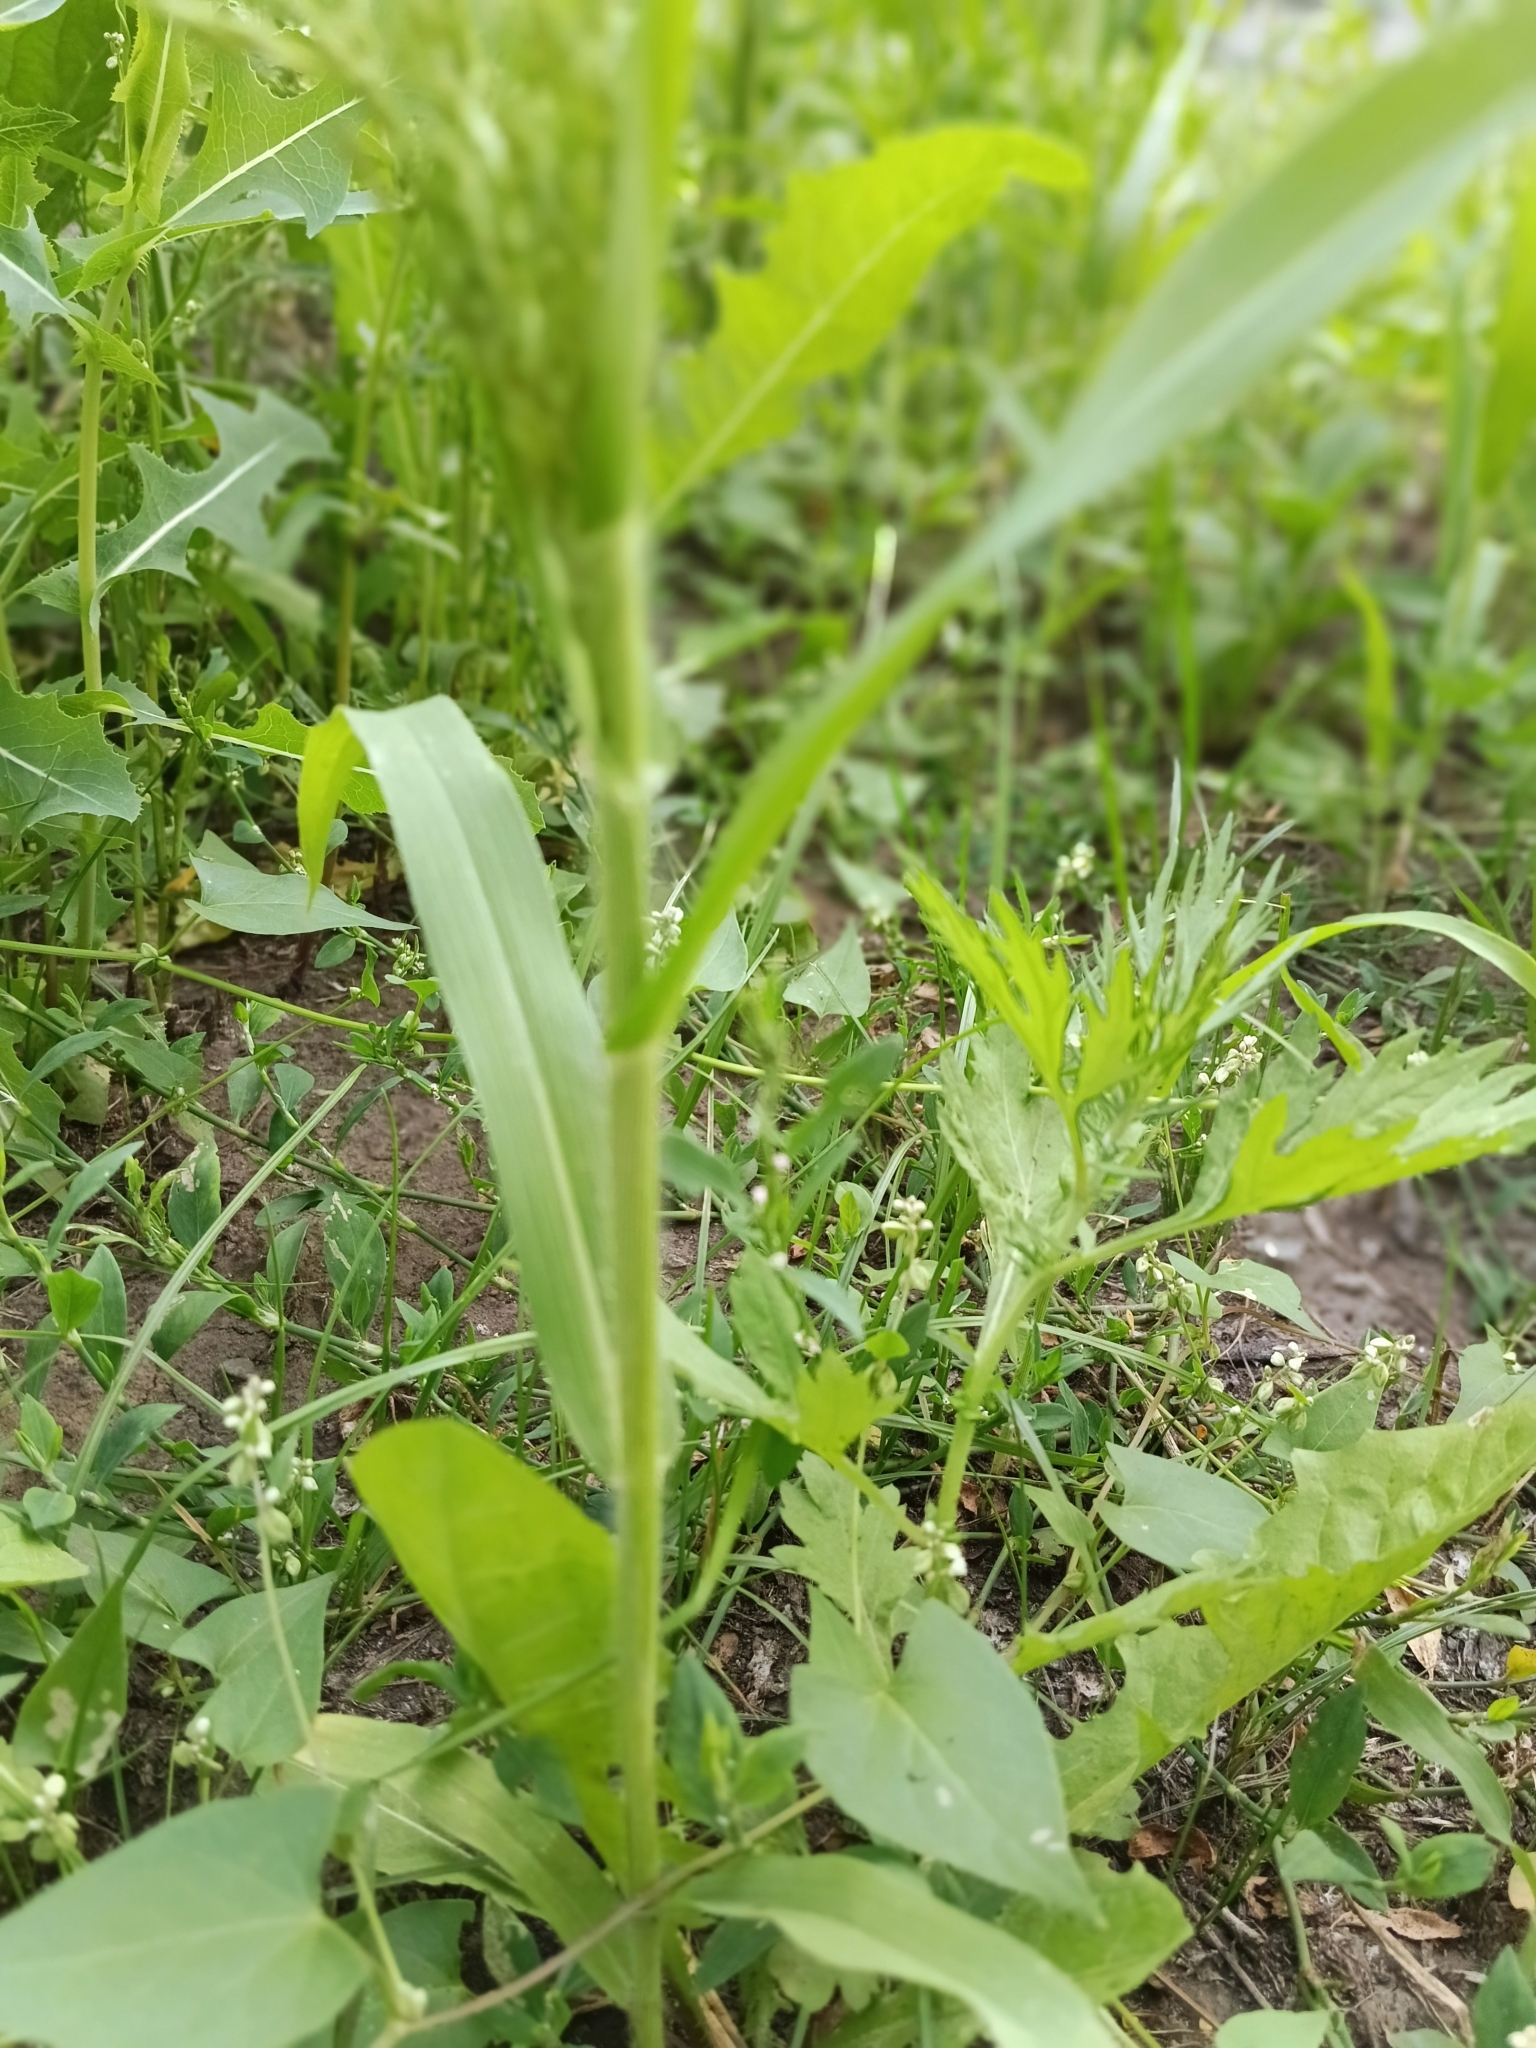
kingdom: Plantae
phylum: Tracheophyta
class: Liliopsida
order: Poales
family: Poaceae
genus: Panicum
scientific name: Panicum miliaceum
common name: Common millet
